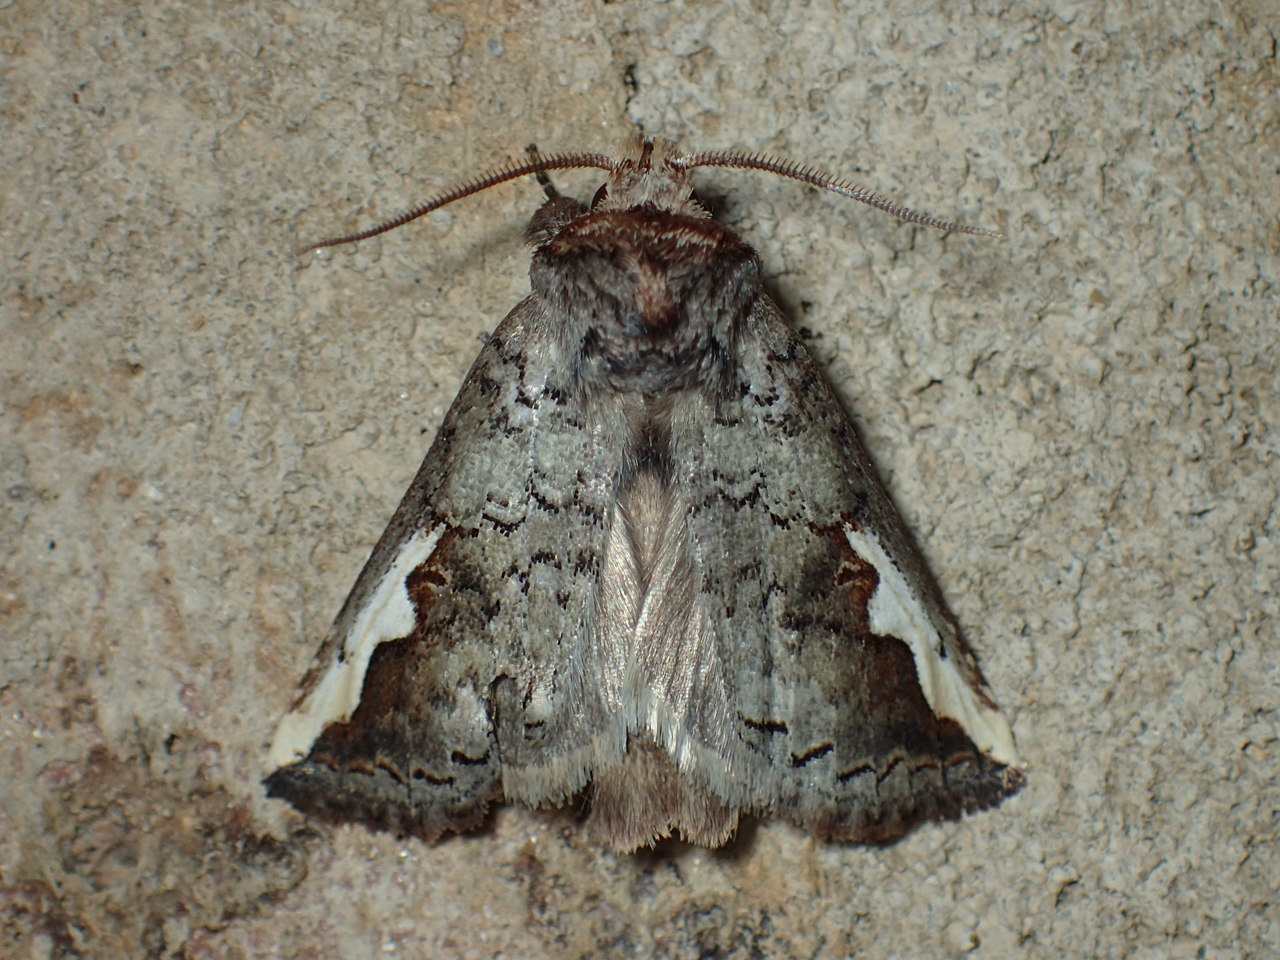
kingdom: Animalia
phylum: Arthropoda
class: Insecta
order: Lepidoptera
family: Notodontidae
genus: Symmerista
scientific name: Symmerista
